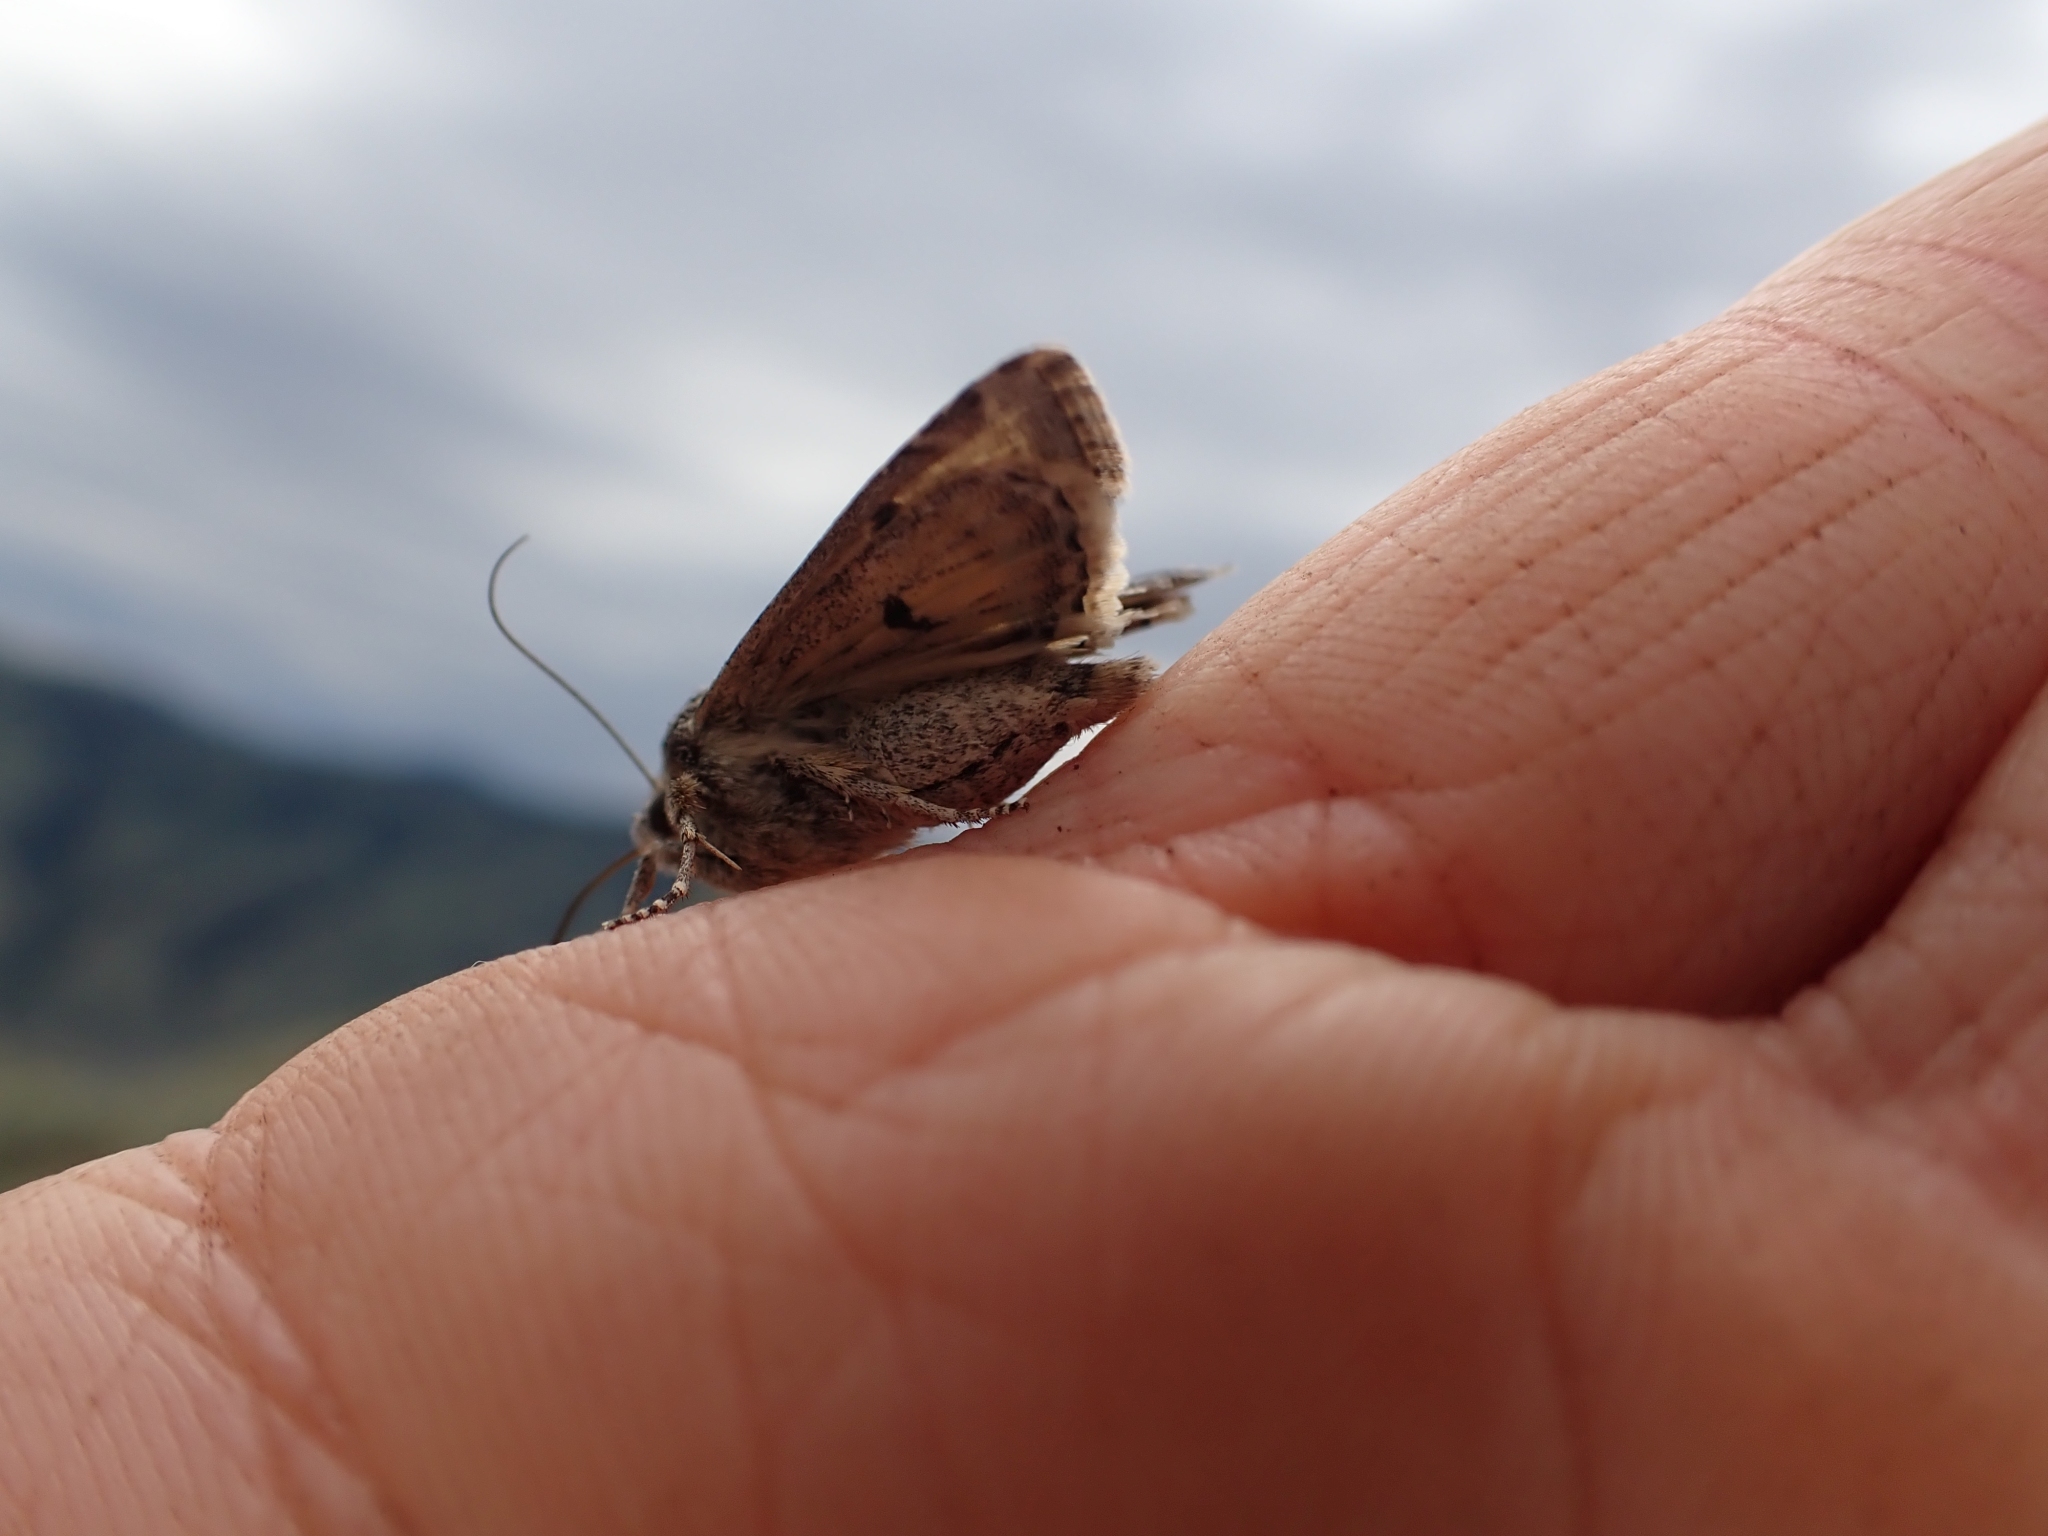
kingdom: Animalia
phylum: Arthropoda
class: Insecta
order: Lepidoptera
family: Noctuidae
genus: Apamea
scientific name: Apamea inordinata
